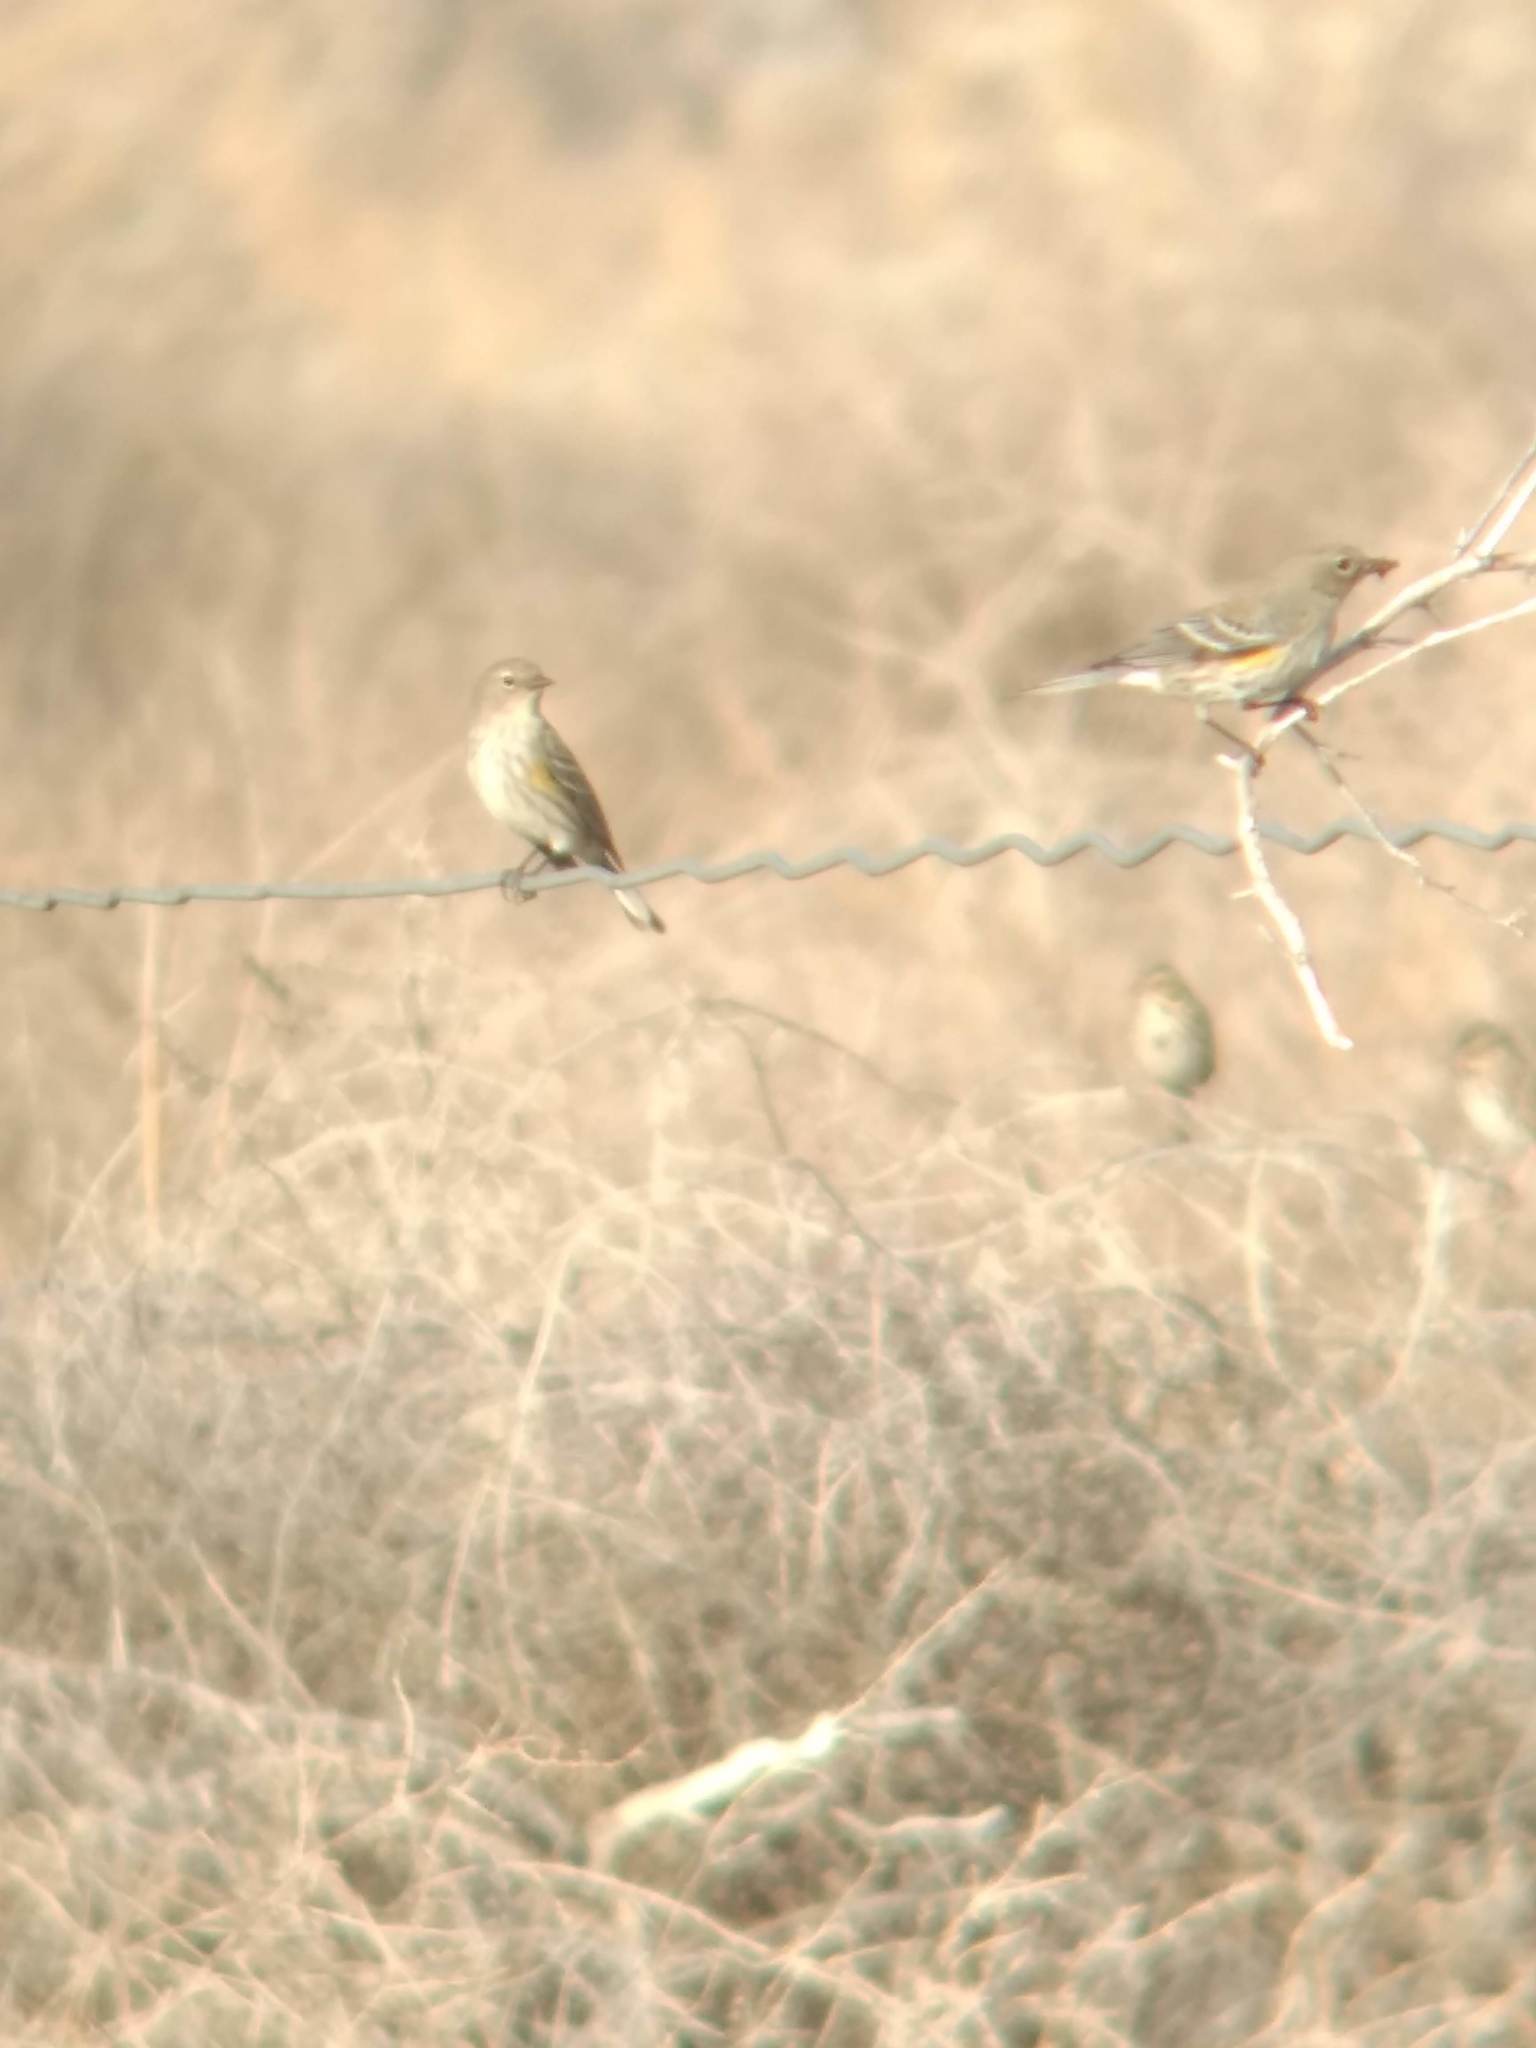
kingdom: Animalia
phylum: Chordata
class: Aves
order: Passeriformes
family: Parulidae
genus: Setophaga
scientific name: Setophaga coronata
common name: Myrtle warbler
